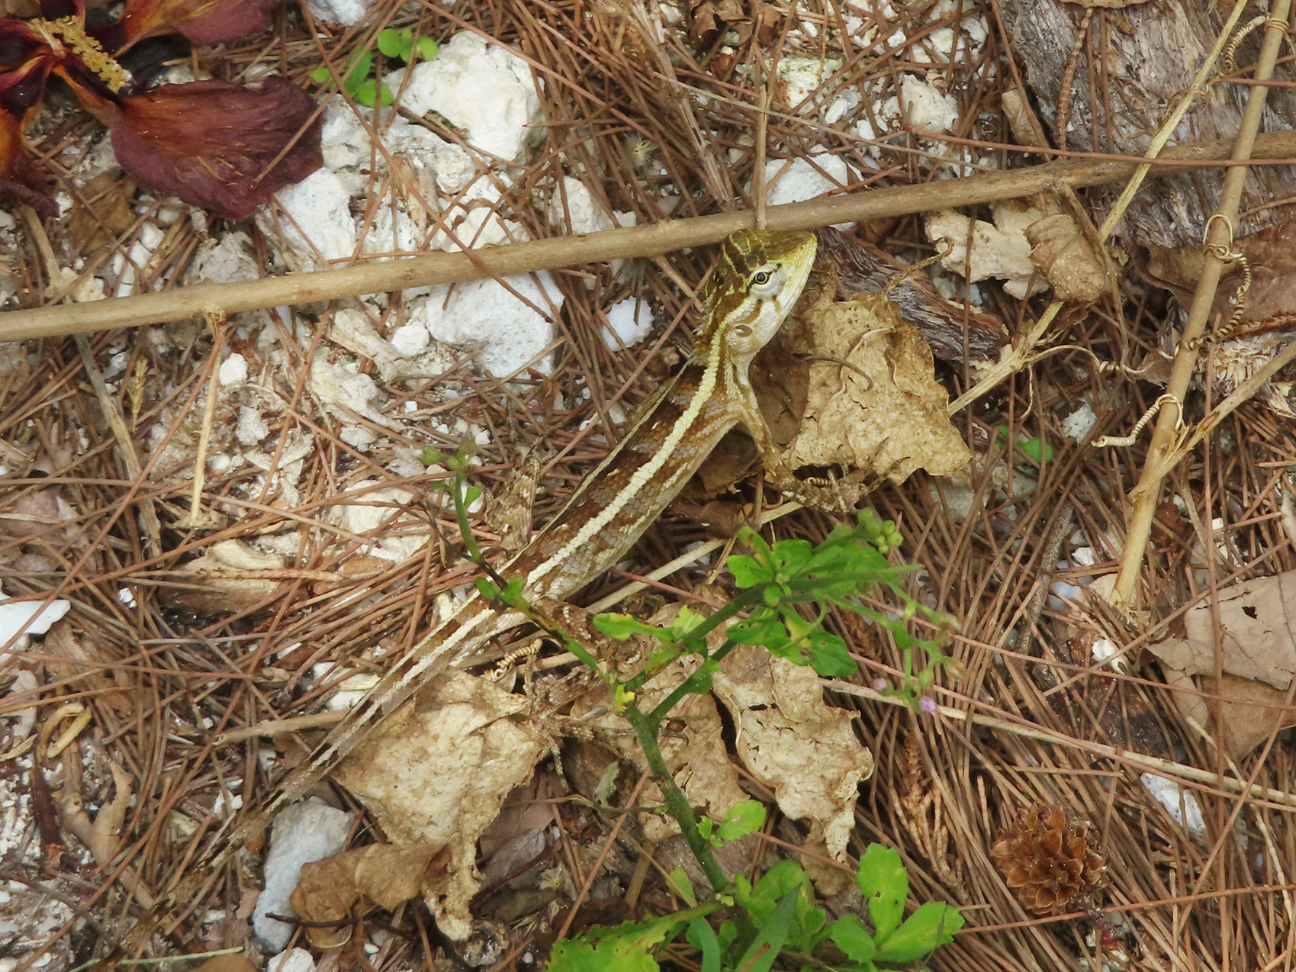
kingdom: Animalia
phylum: Chordata
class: Squamata
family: Agamidae
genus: Calotes
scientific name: Calotes versicolor
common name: Oriental garden lizard
